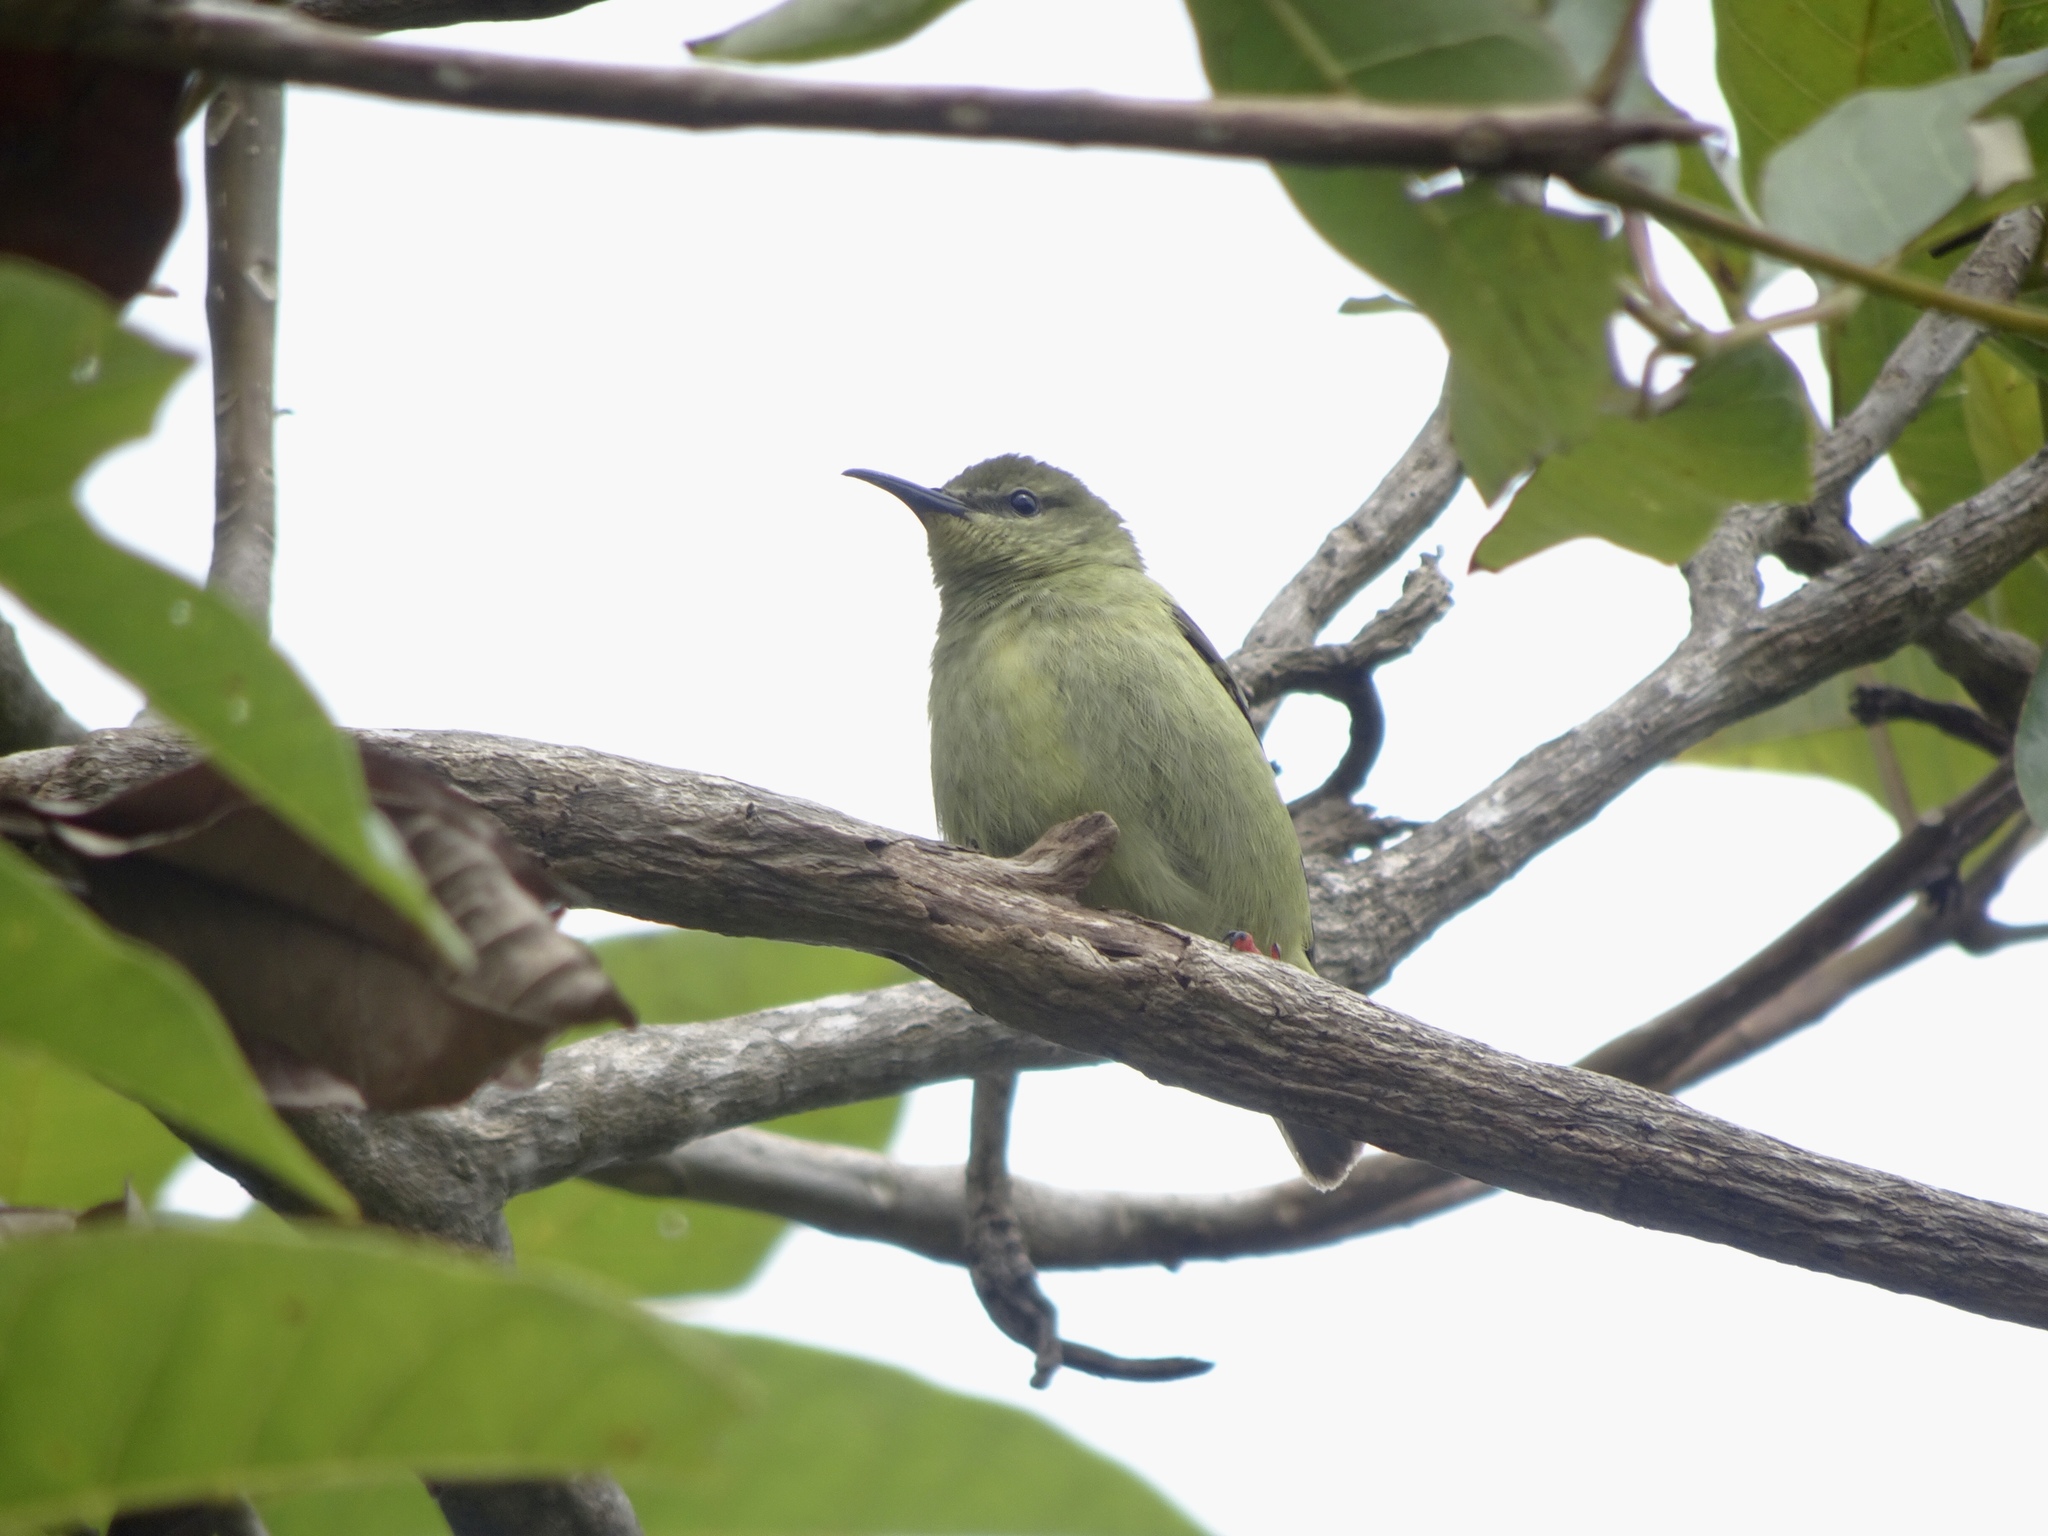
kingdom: Animalia
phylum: Chordata
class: Aves
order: Passeriformes
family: Thraupidae
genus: Cyanerpes
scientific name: Cyanerpes cyaneus
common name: Red-legged honeycreeper
